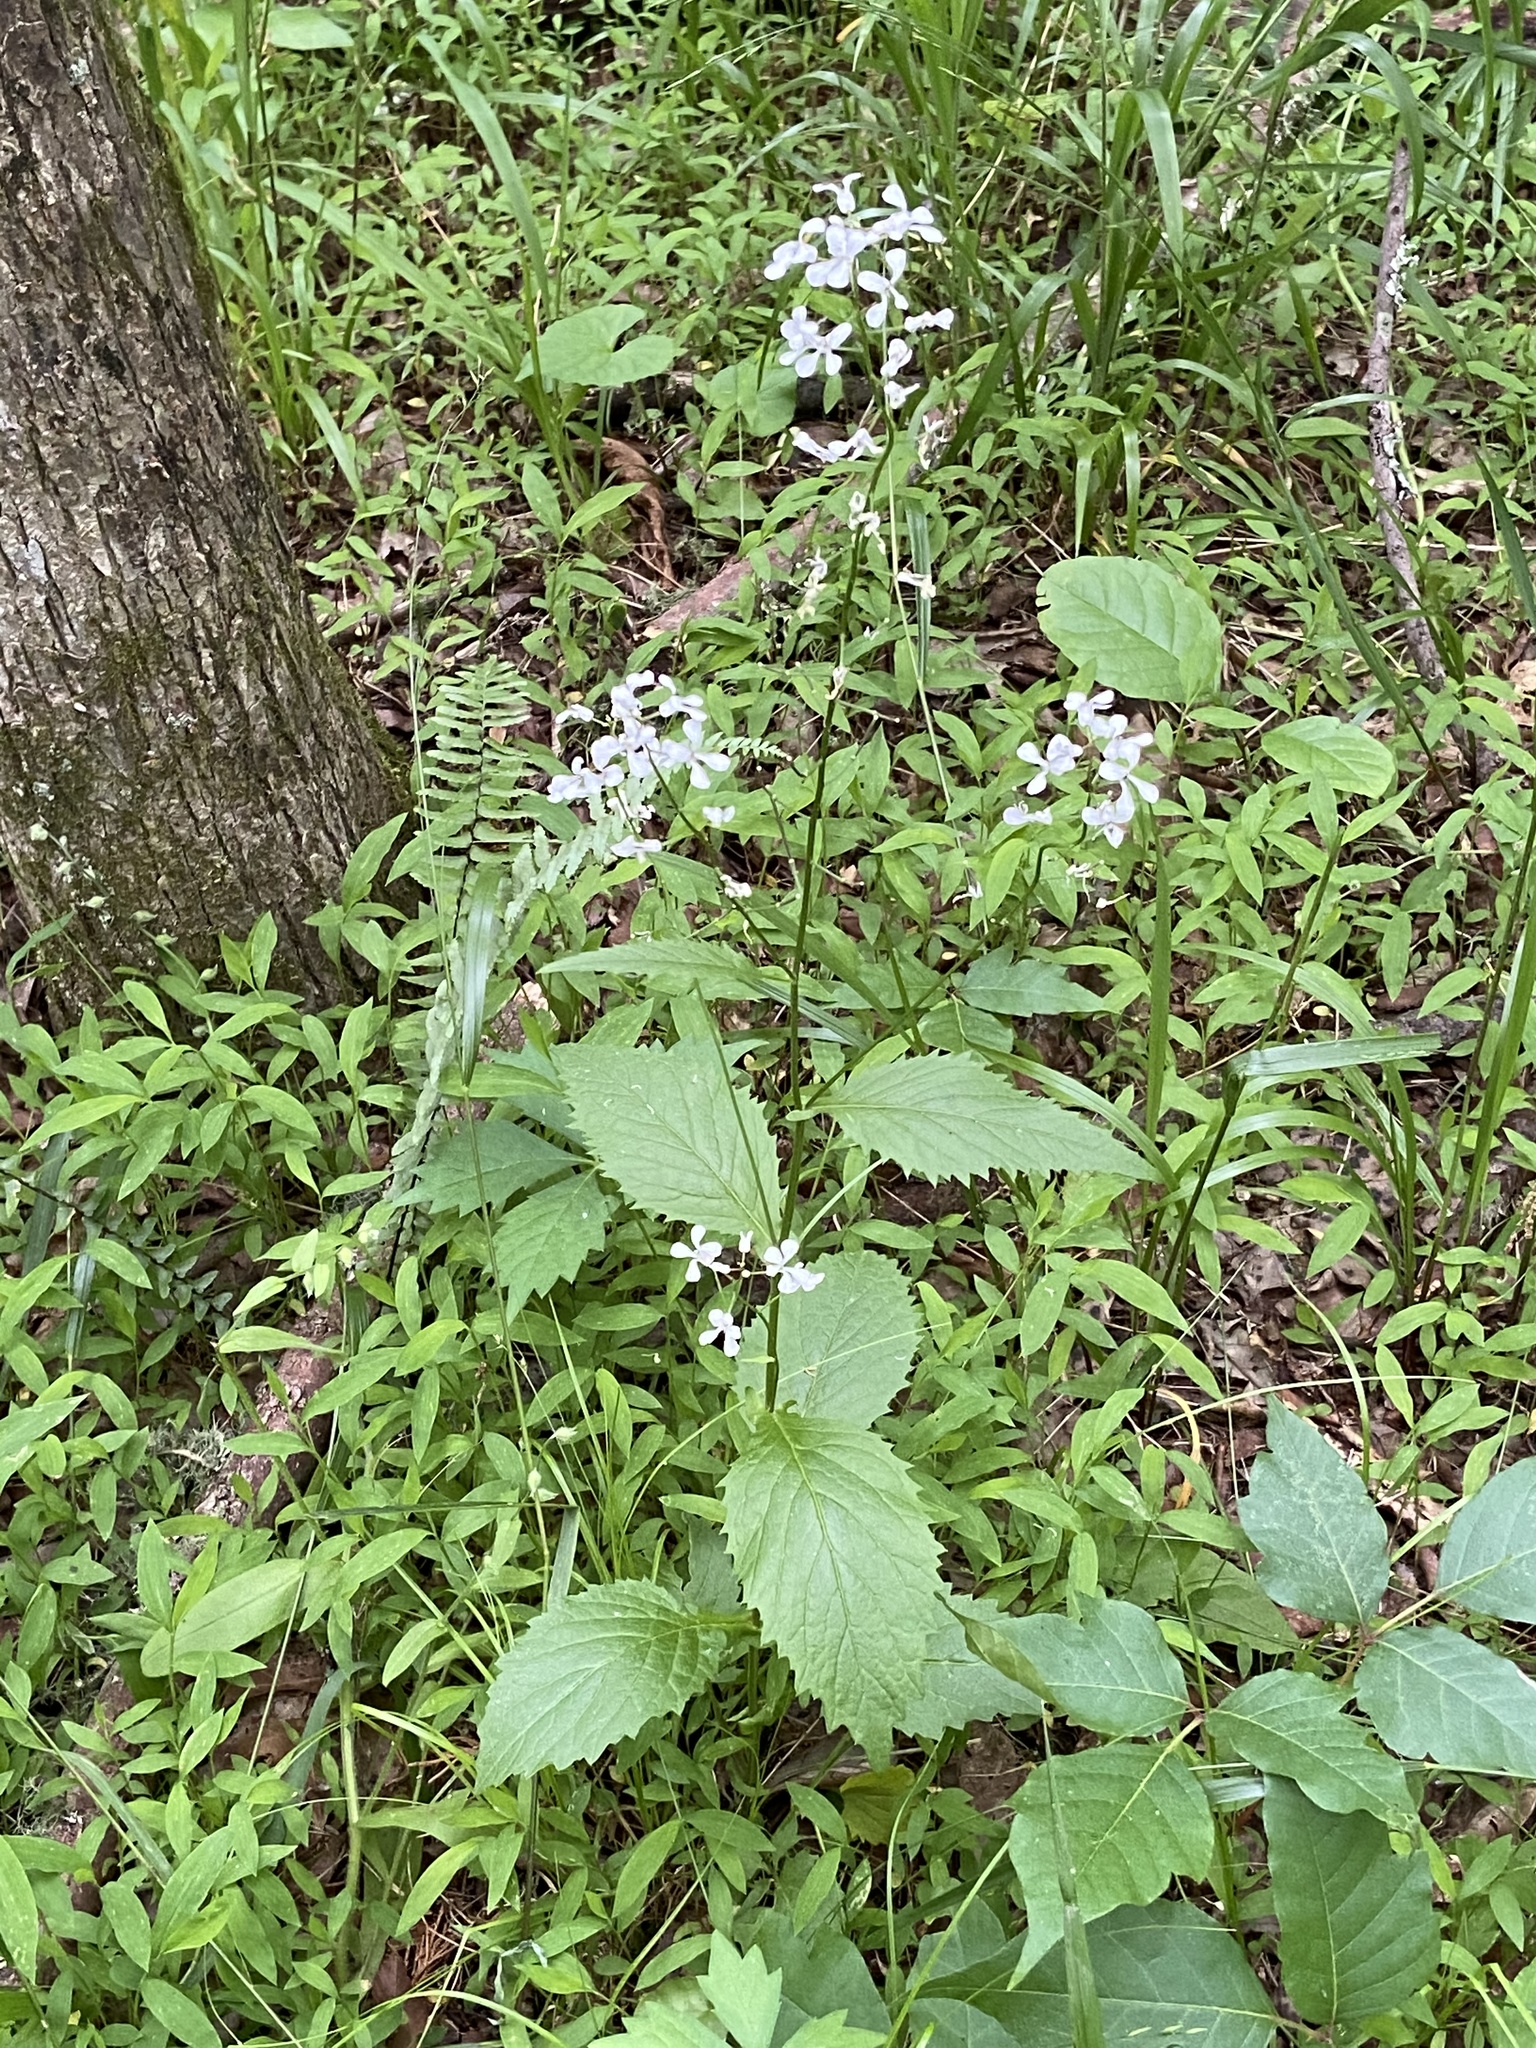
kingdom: Plantae
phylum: Tracheophyta
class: Magnoliopsida
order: Brassicales
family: Brassicaceae
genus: Iodanthus
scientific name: Iodanthus pinnatifidus
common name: Violet rocket
